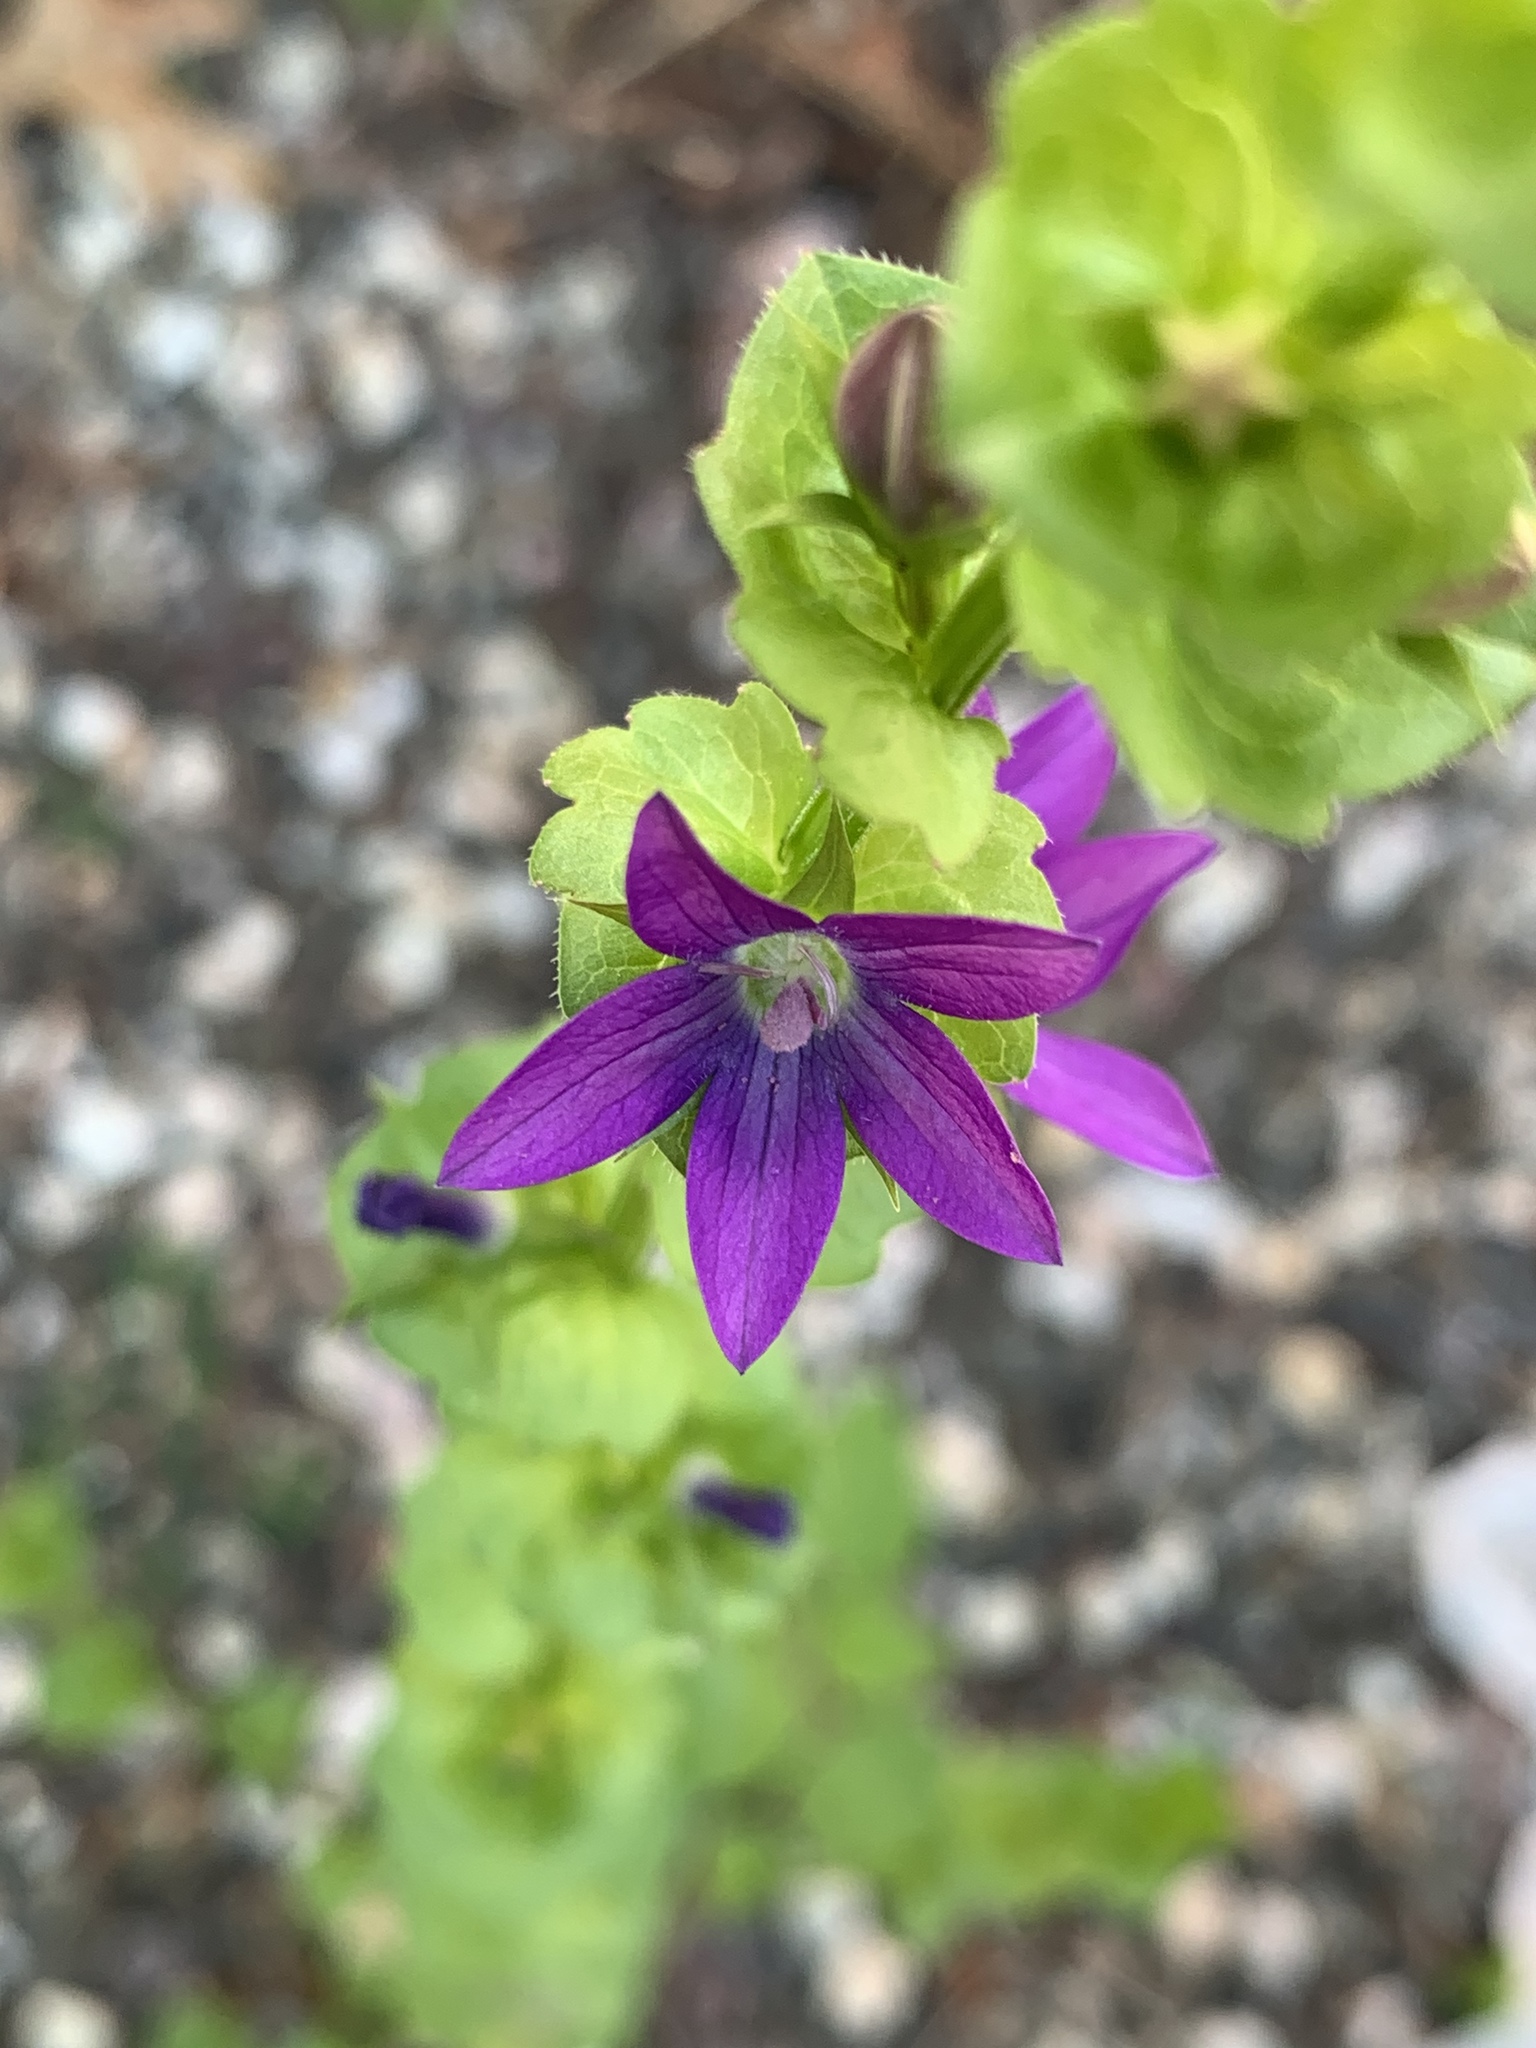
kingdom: Plantae
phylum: Tracheophyta
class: Magnoliopsida
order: Asterales
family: Campanulaceae
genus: Triodanis
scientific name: Triodanis perfoliata
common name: Clasping venus' looking-glass
